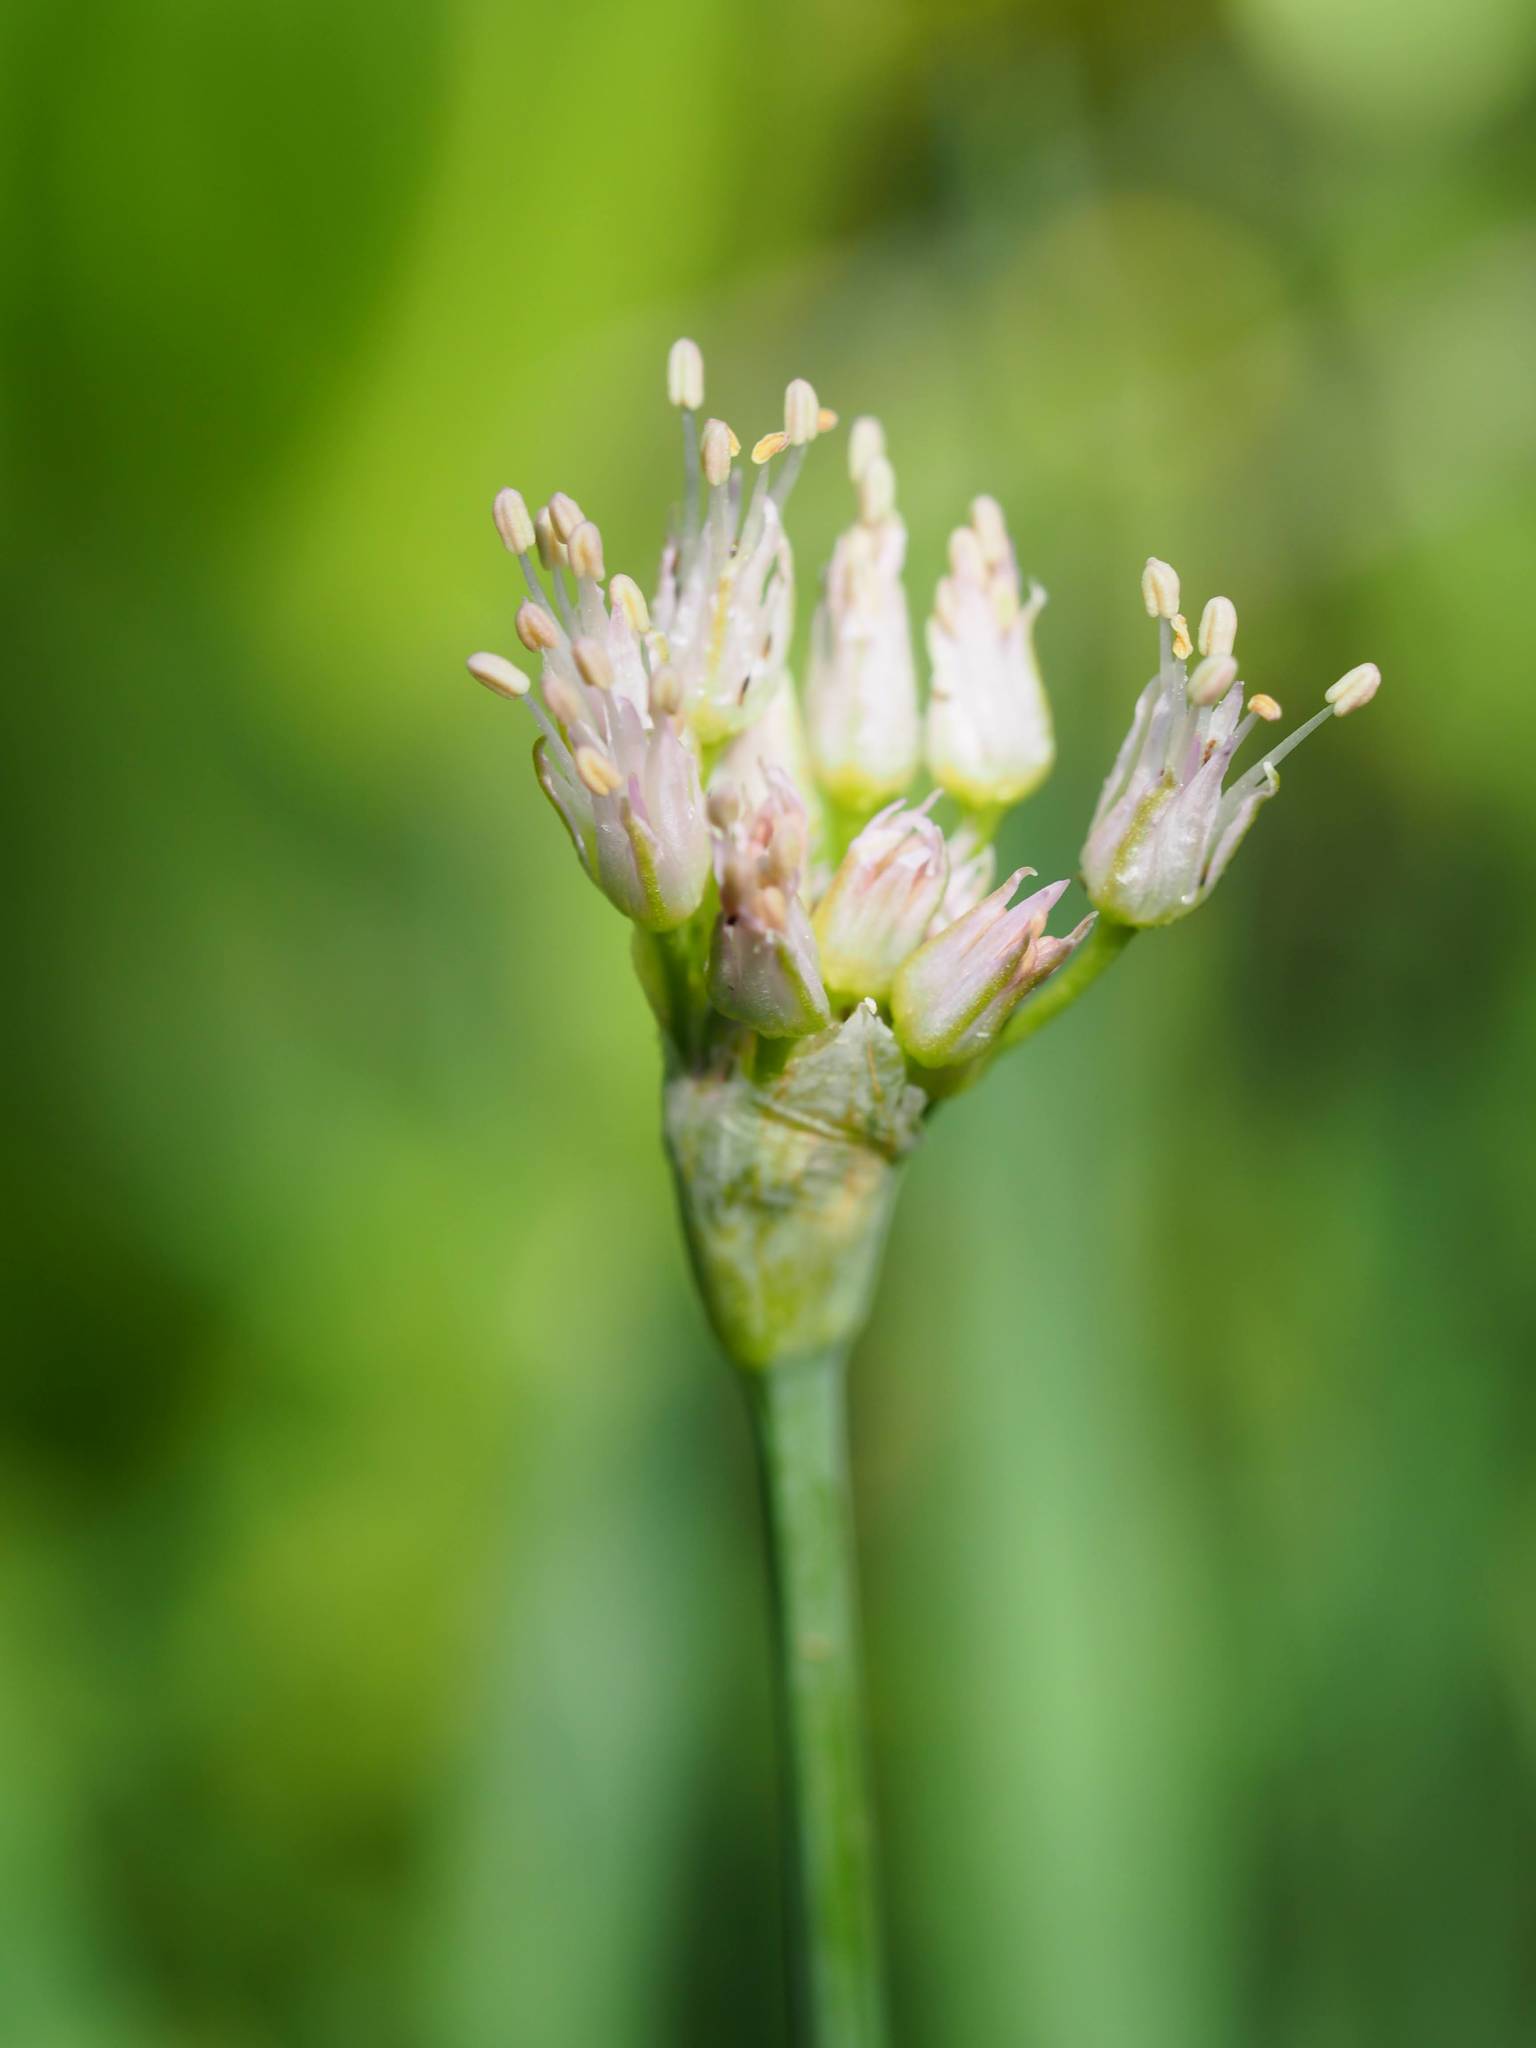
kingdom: Plantae
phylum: Tracheophyta
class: Liliopsida
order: Asparagales
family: Amaryllidaceae
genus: Allium
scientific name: Allium validum
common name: Pacific mountain onion
